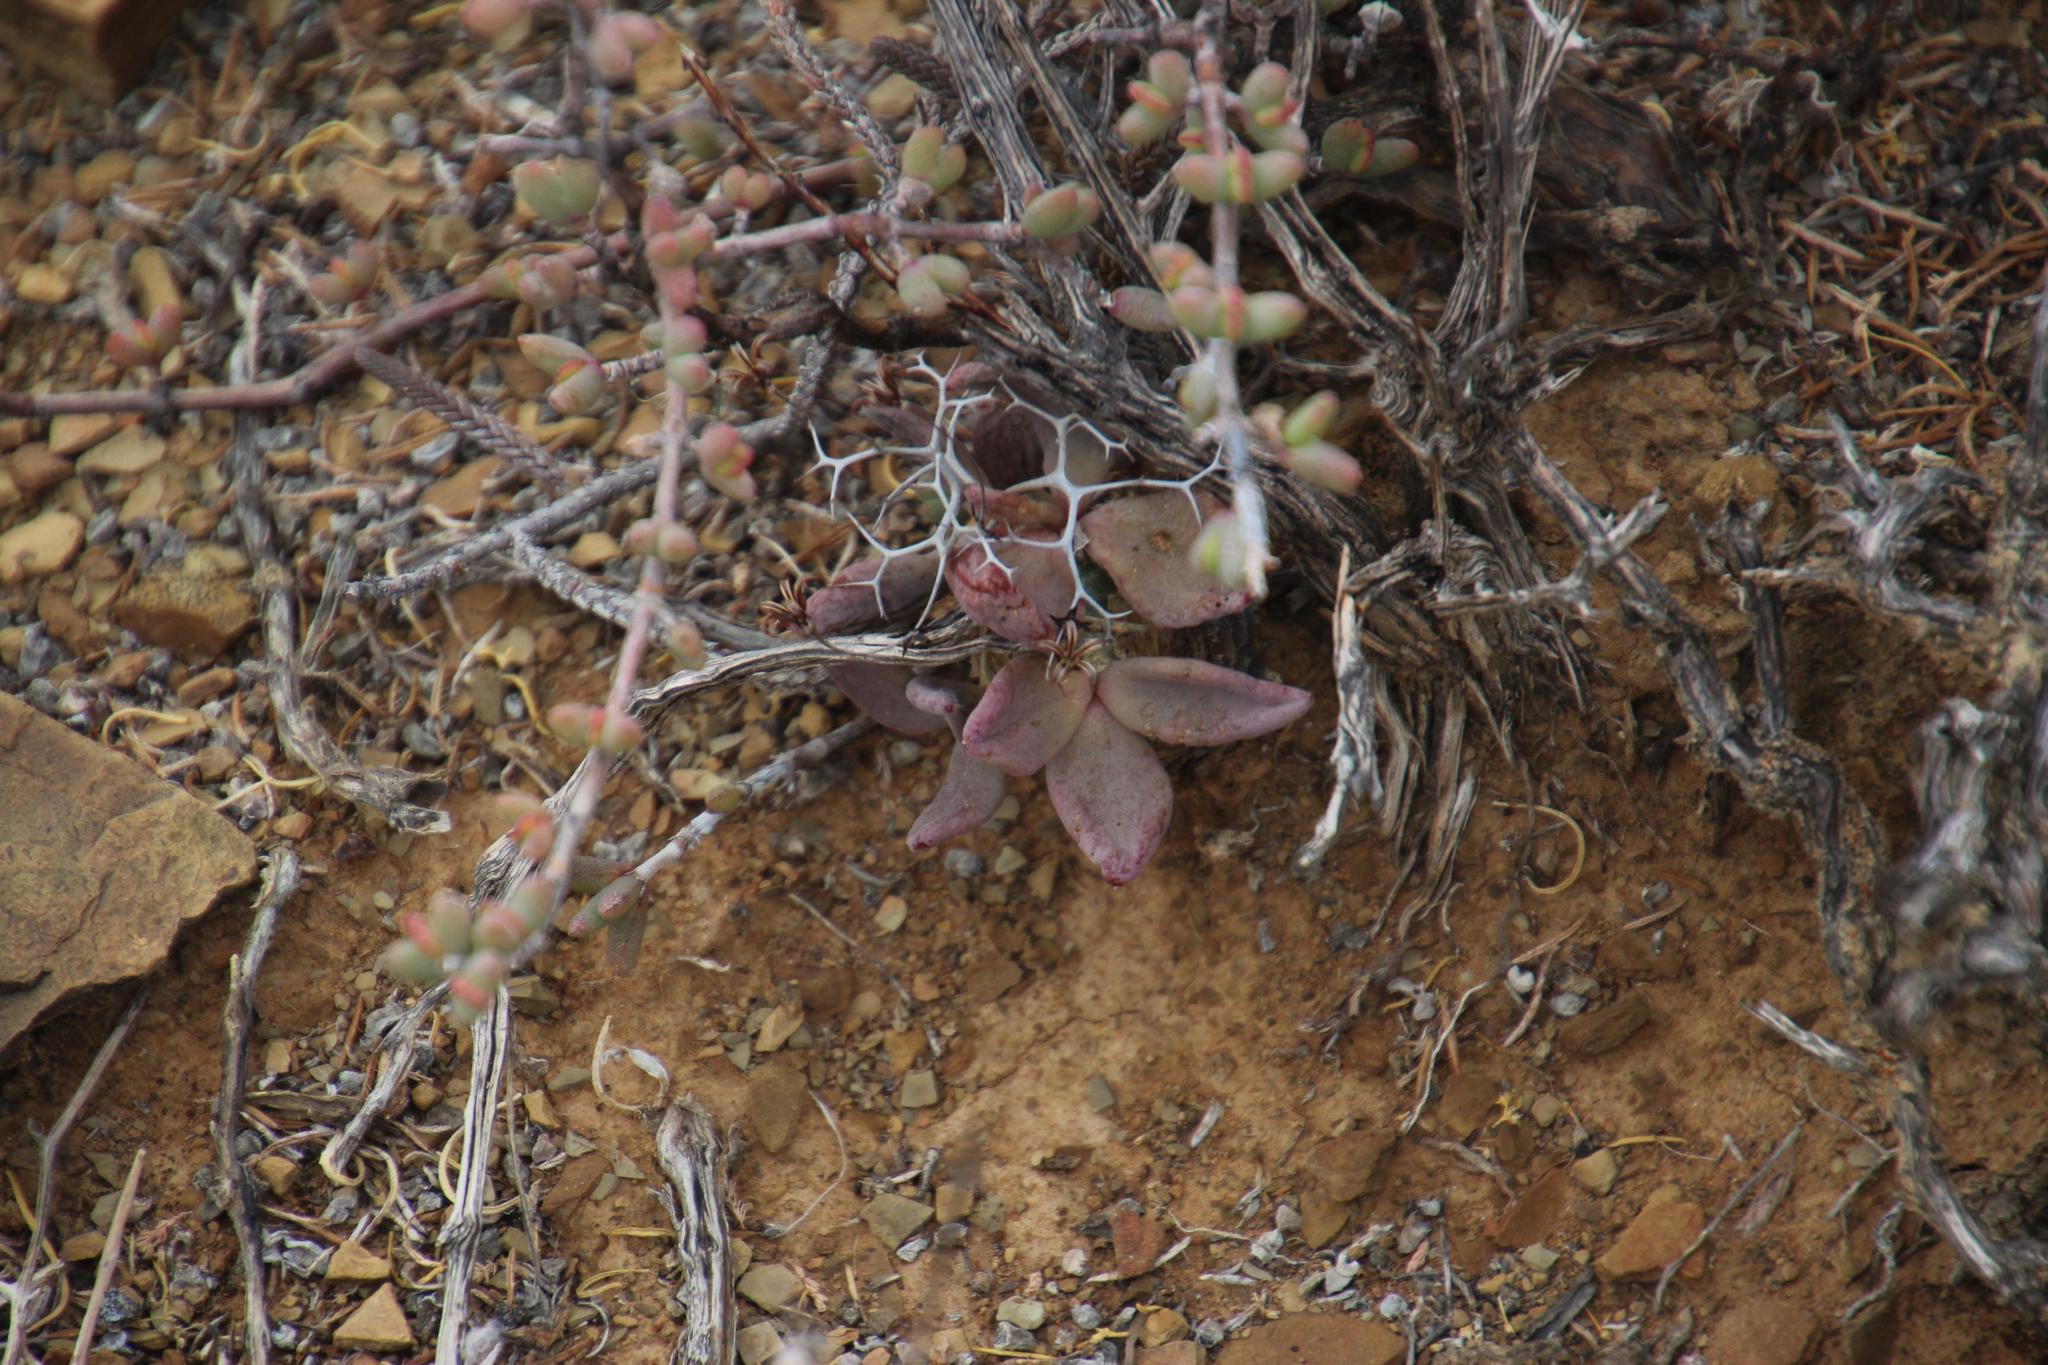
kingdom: Plantae
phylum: Tracheophyta
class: Magnoliopsida
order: Saxifragales
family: Crassulaceae
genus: Tylecodon
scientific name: Tylecodon reticulatus
